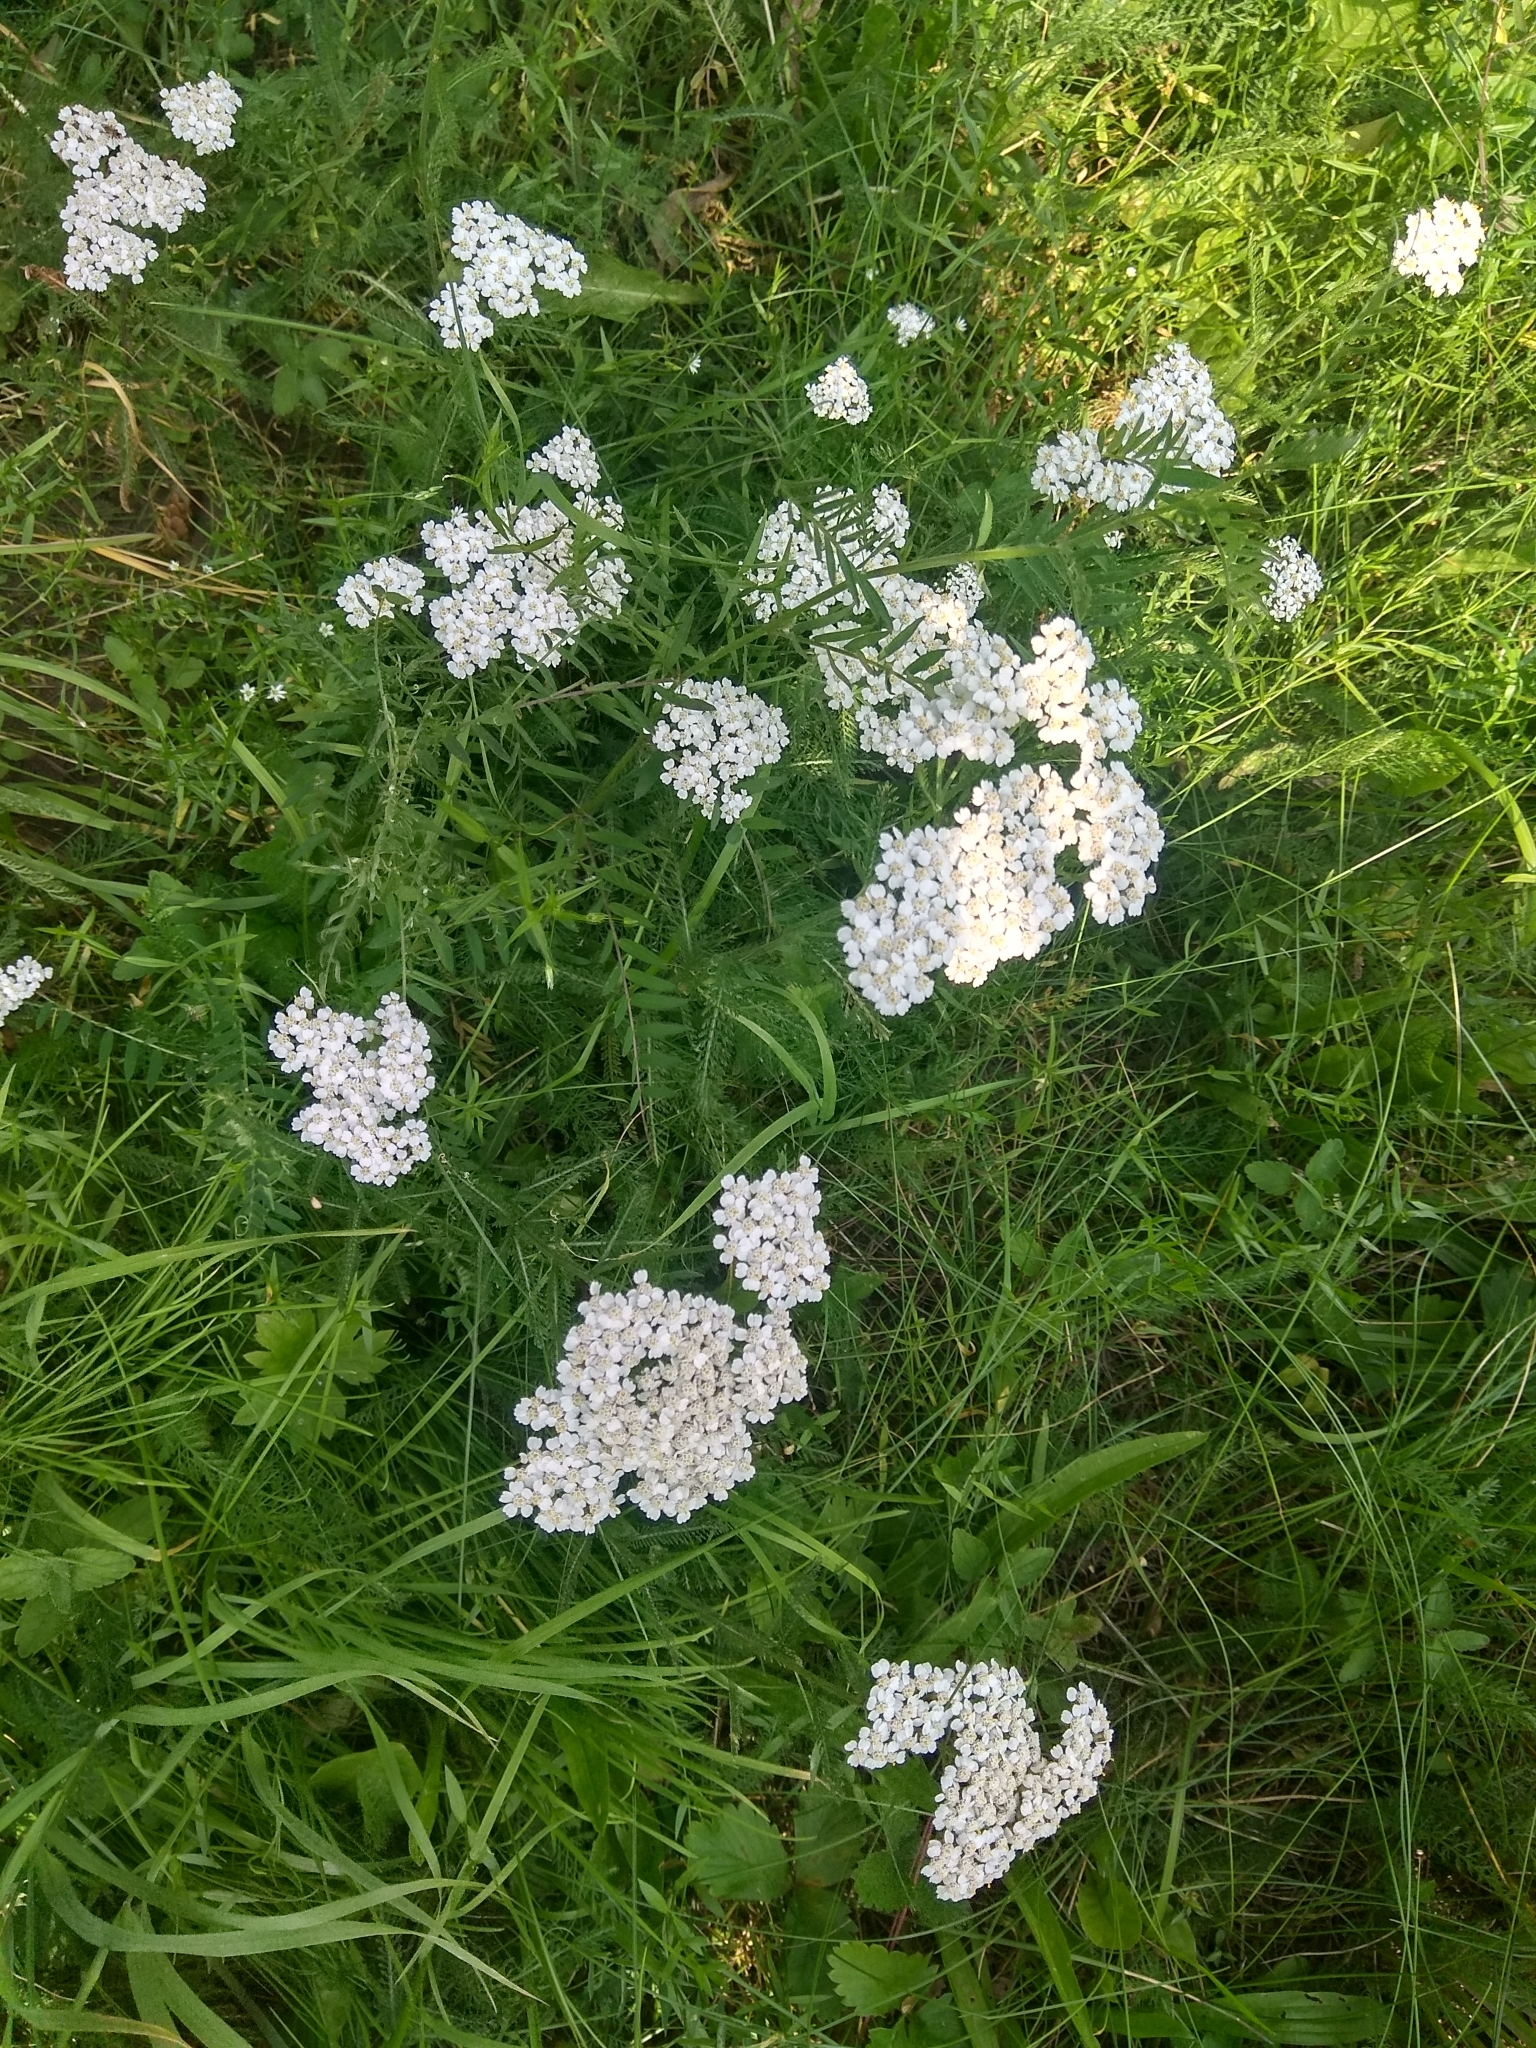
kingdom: Plantae
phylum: Tracheophyta
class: Magnoliopsida
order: Asterales
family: Asteraceae
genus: Achillea
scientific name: Achillea millefolium
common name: Yarrow
